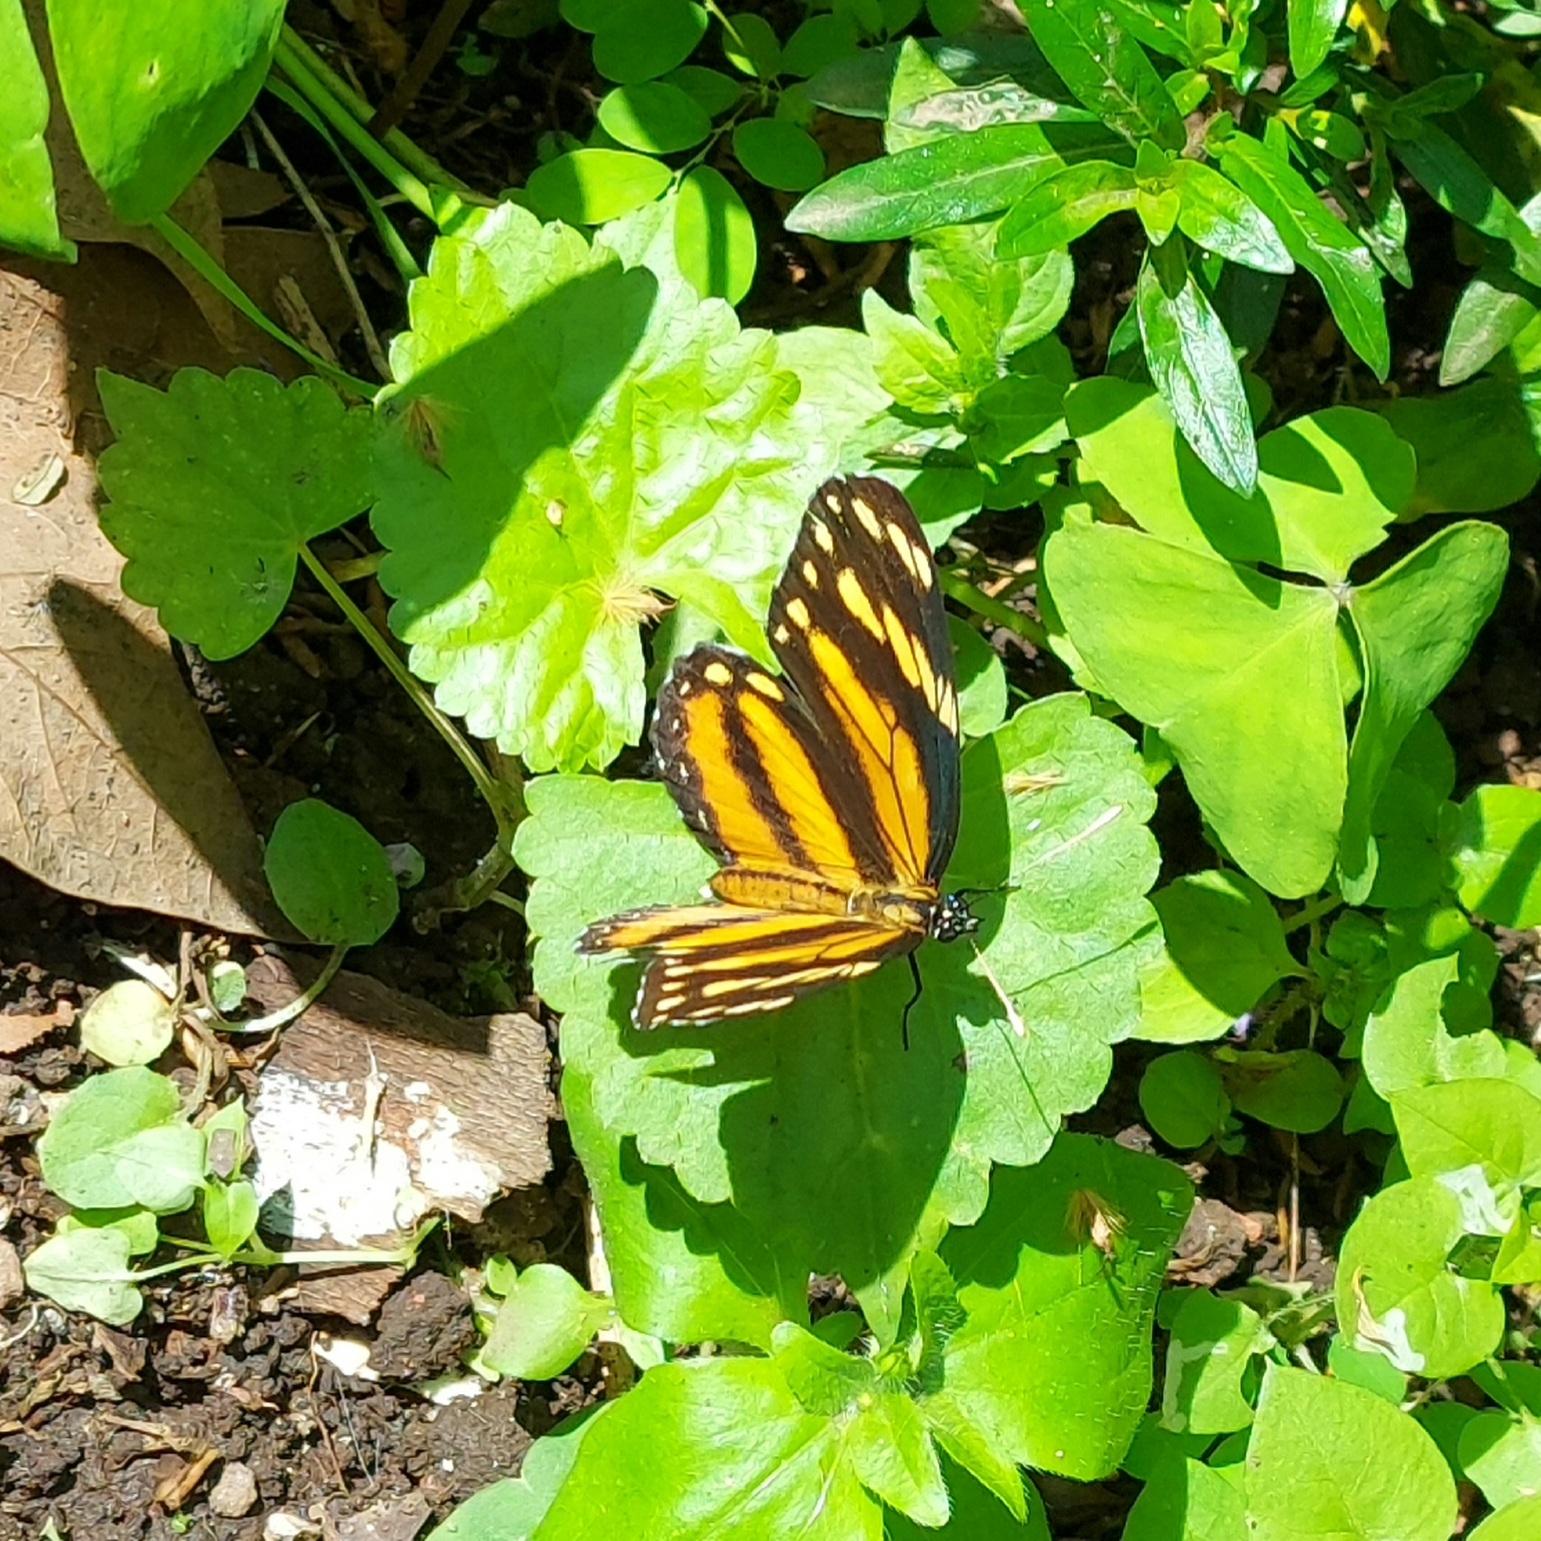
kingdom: Animalia
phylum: Arthropoda
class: Insecta
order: Lepidoptera
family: Nymphalidae
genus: Eresia
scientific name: Eresia phillyra
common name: Longwing crescent
